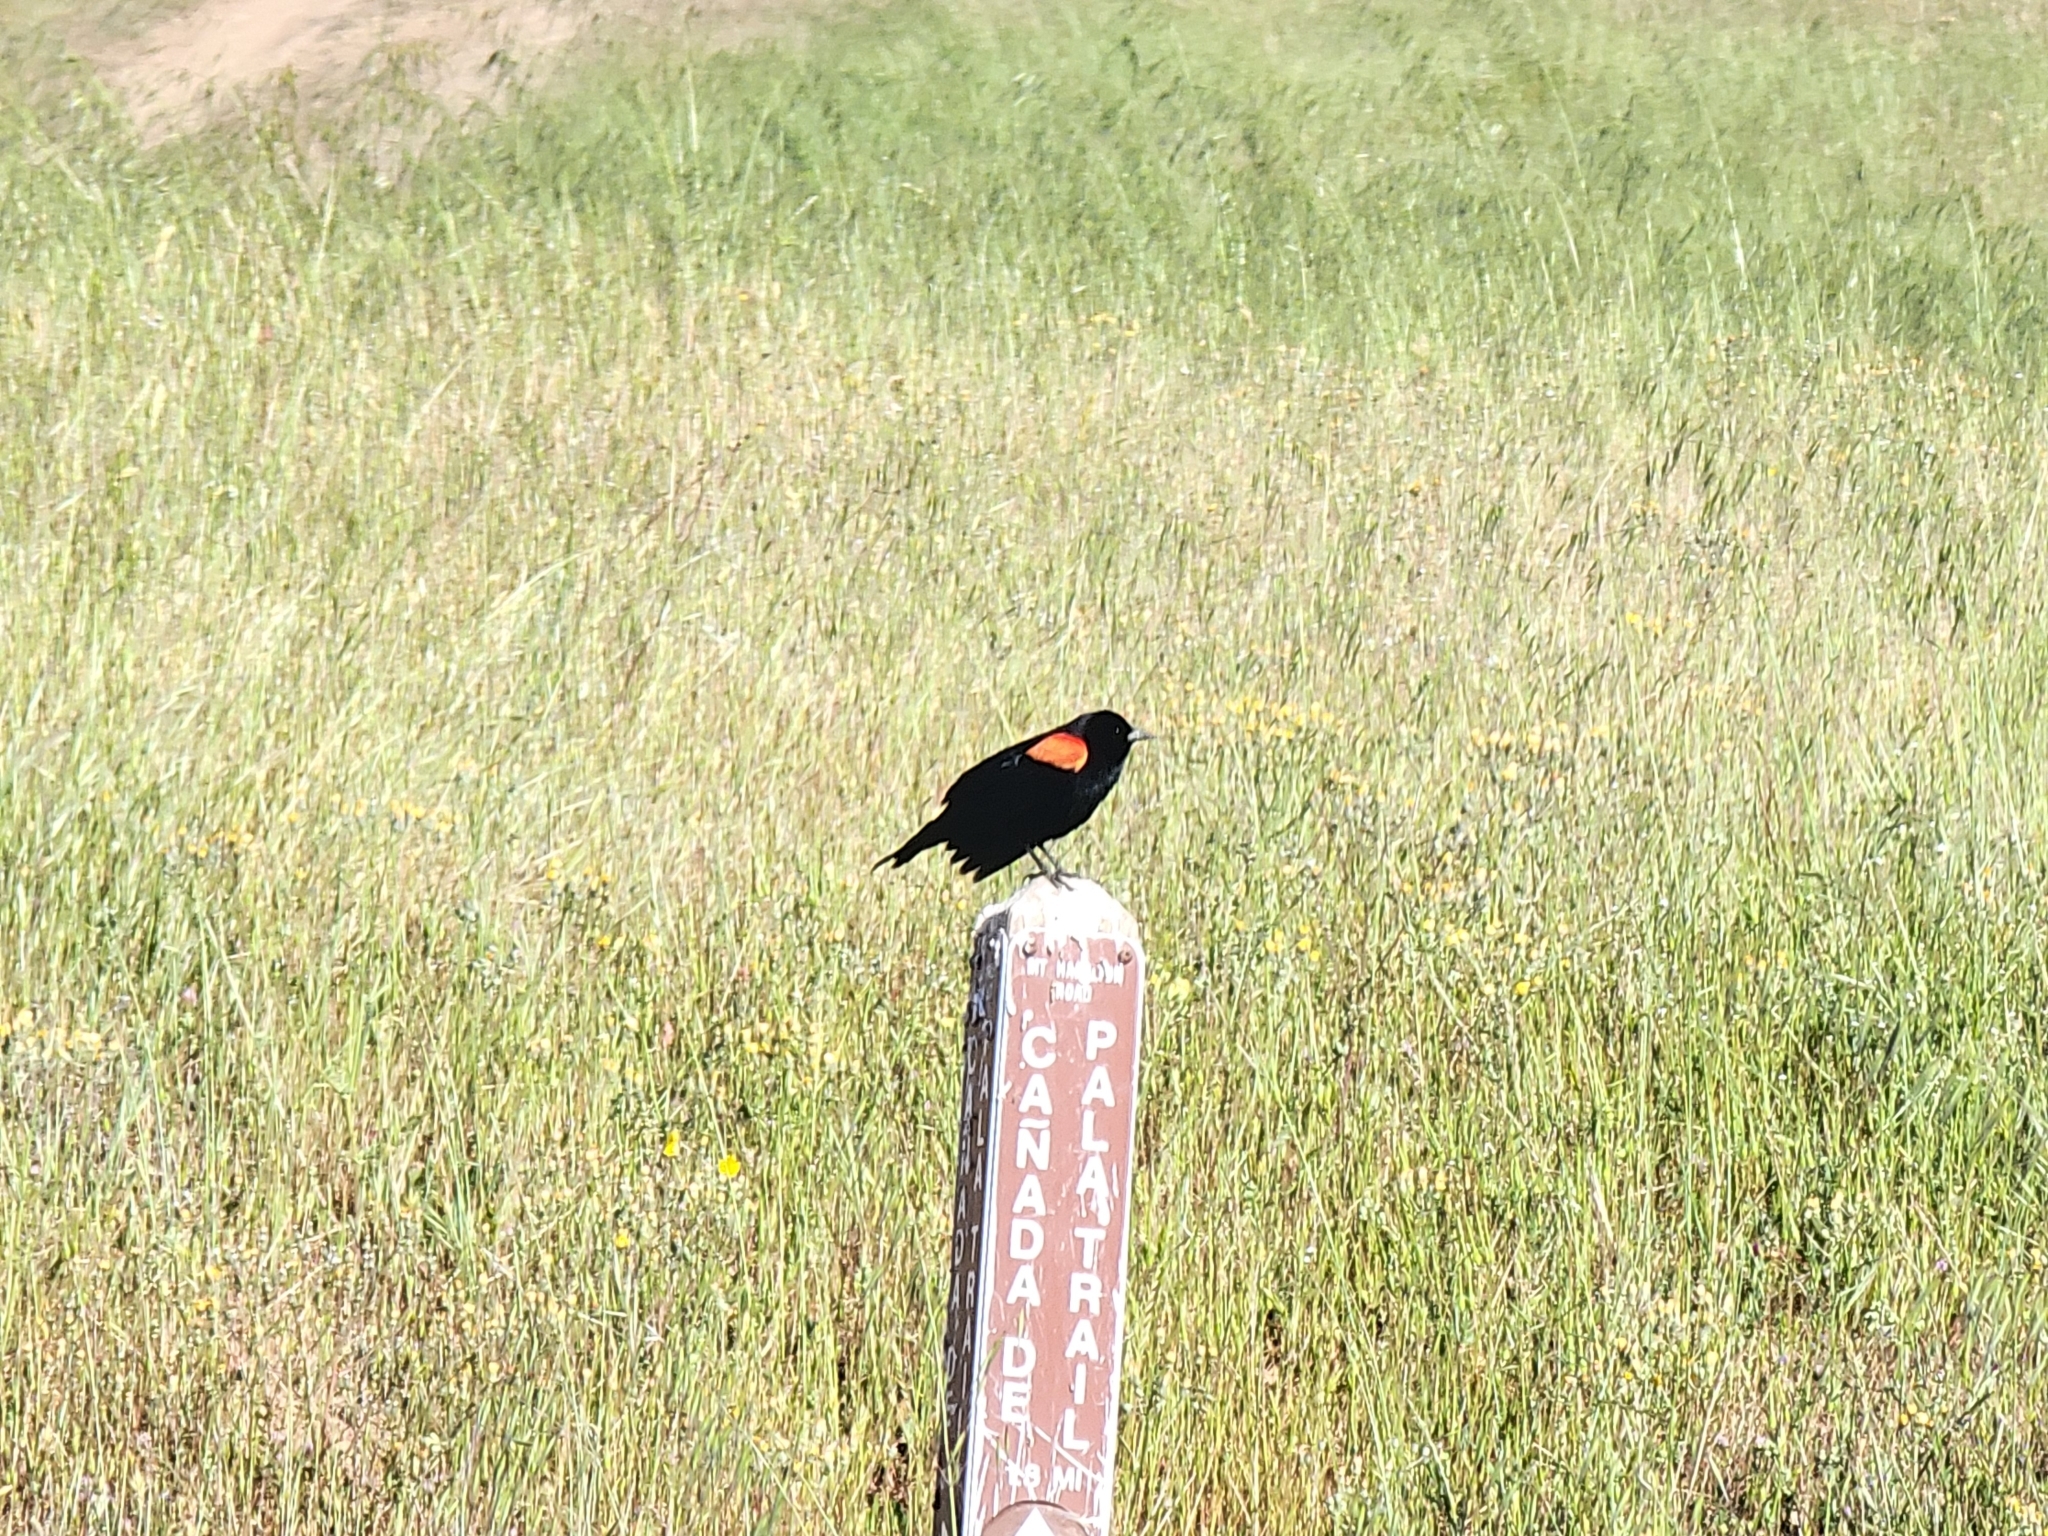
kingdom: Animalia
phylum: Chordata
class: Aves
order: Passeriformes
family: Icteridae
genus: Agelaius
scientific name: Agelaius phoeniceus
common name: Red-winged blackbird
